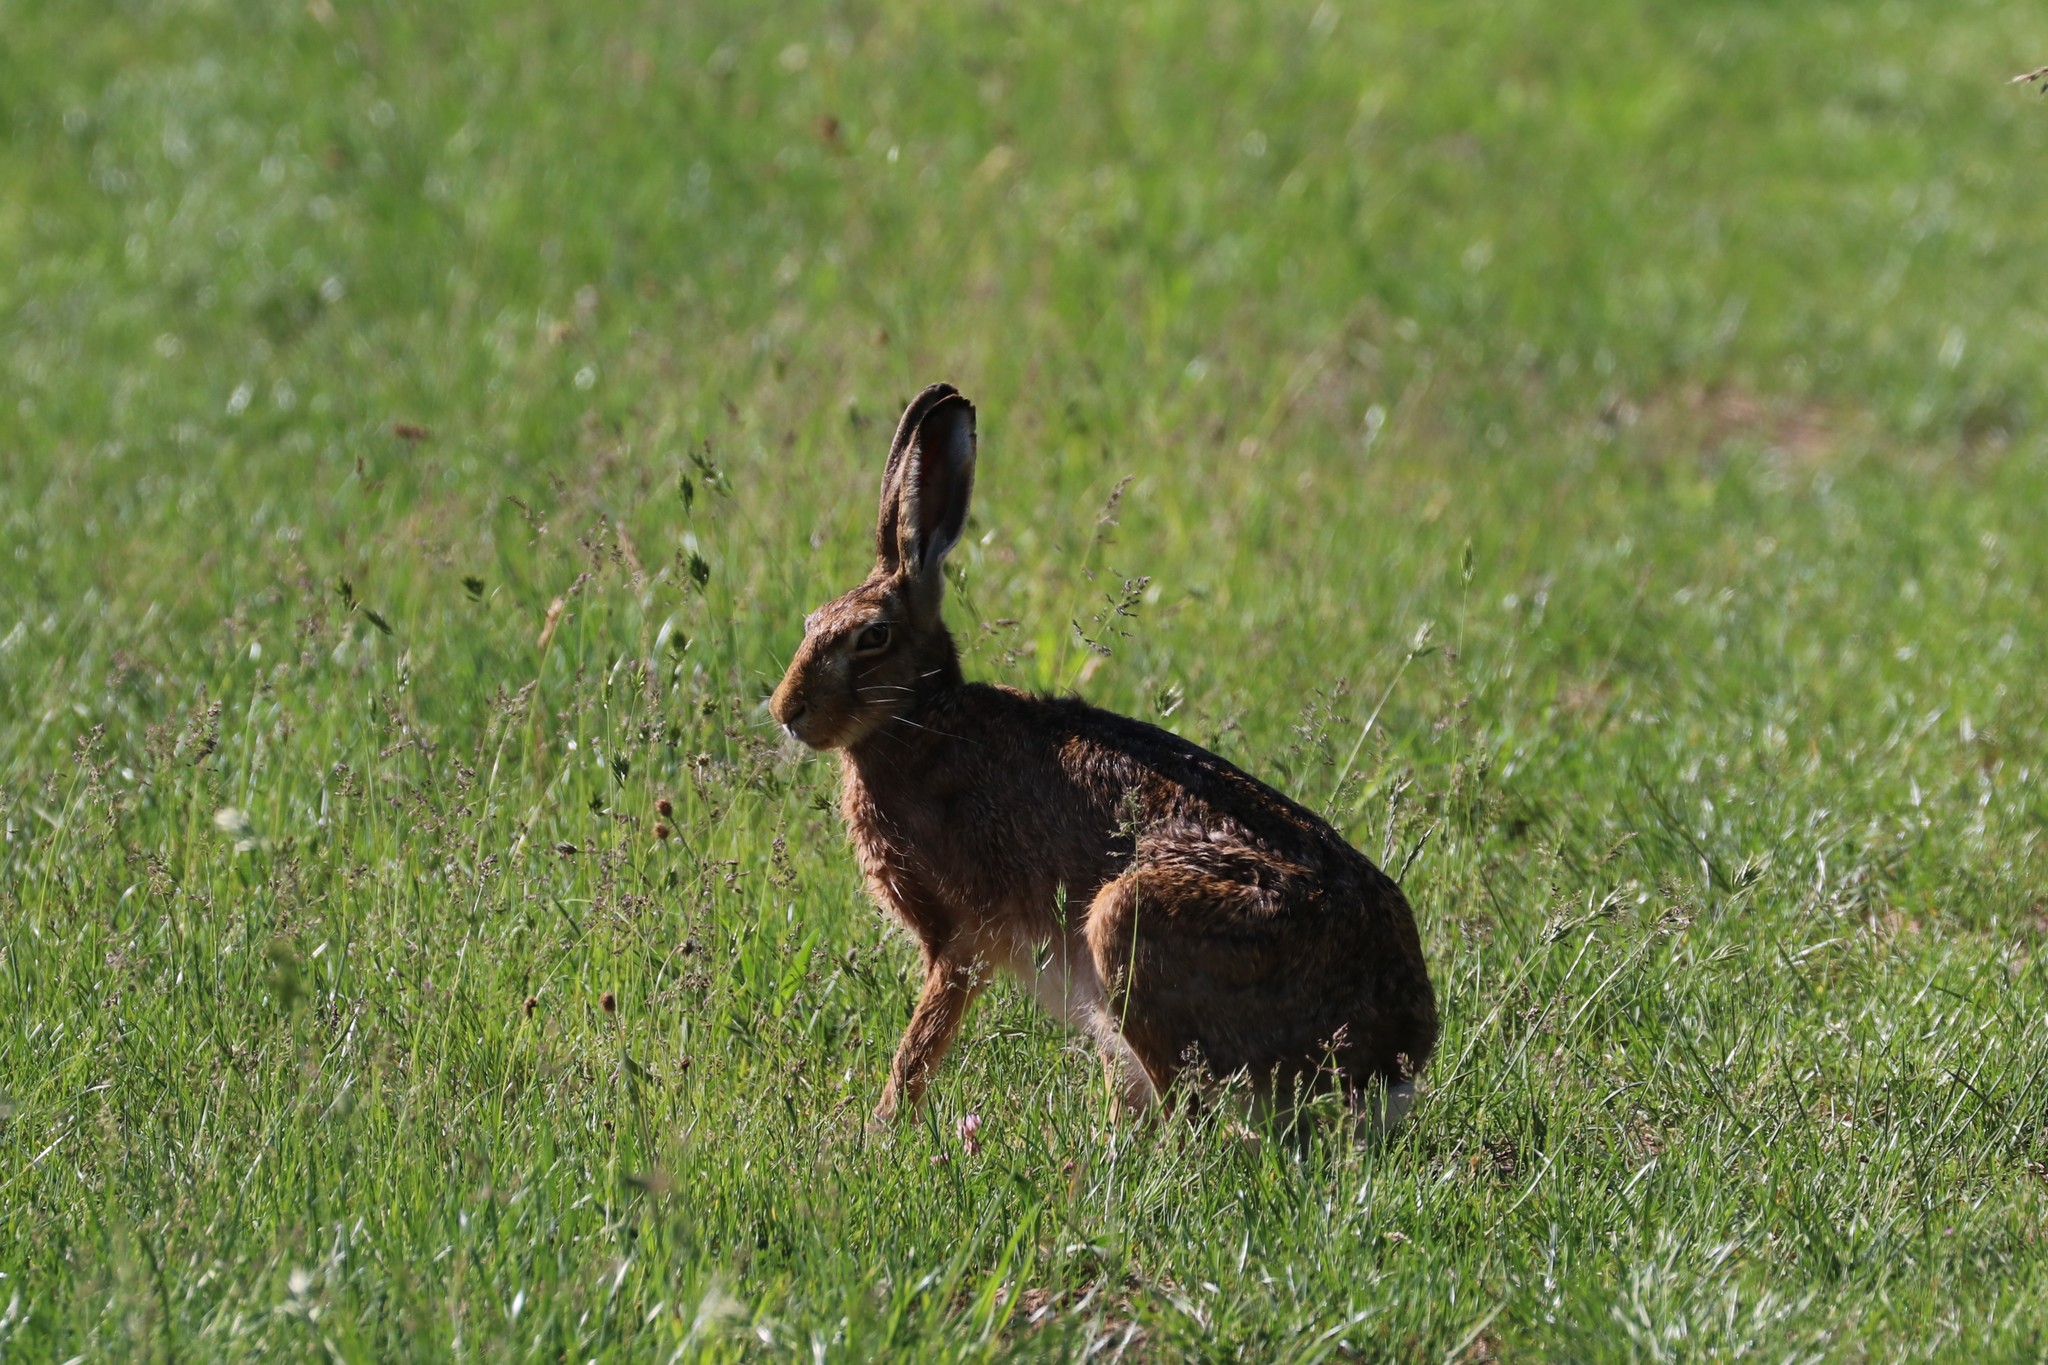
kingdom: Animalia
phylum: Chordata
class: Mammalia
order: Lagomorpha
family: Leporidae
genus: Lepus
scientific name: Lepus europaeus
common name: European hare
